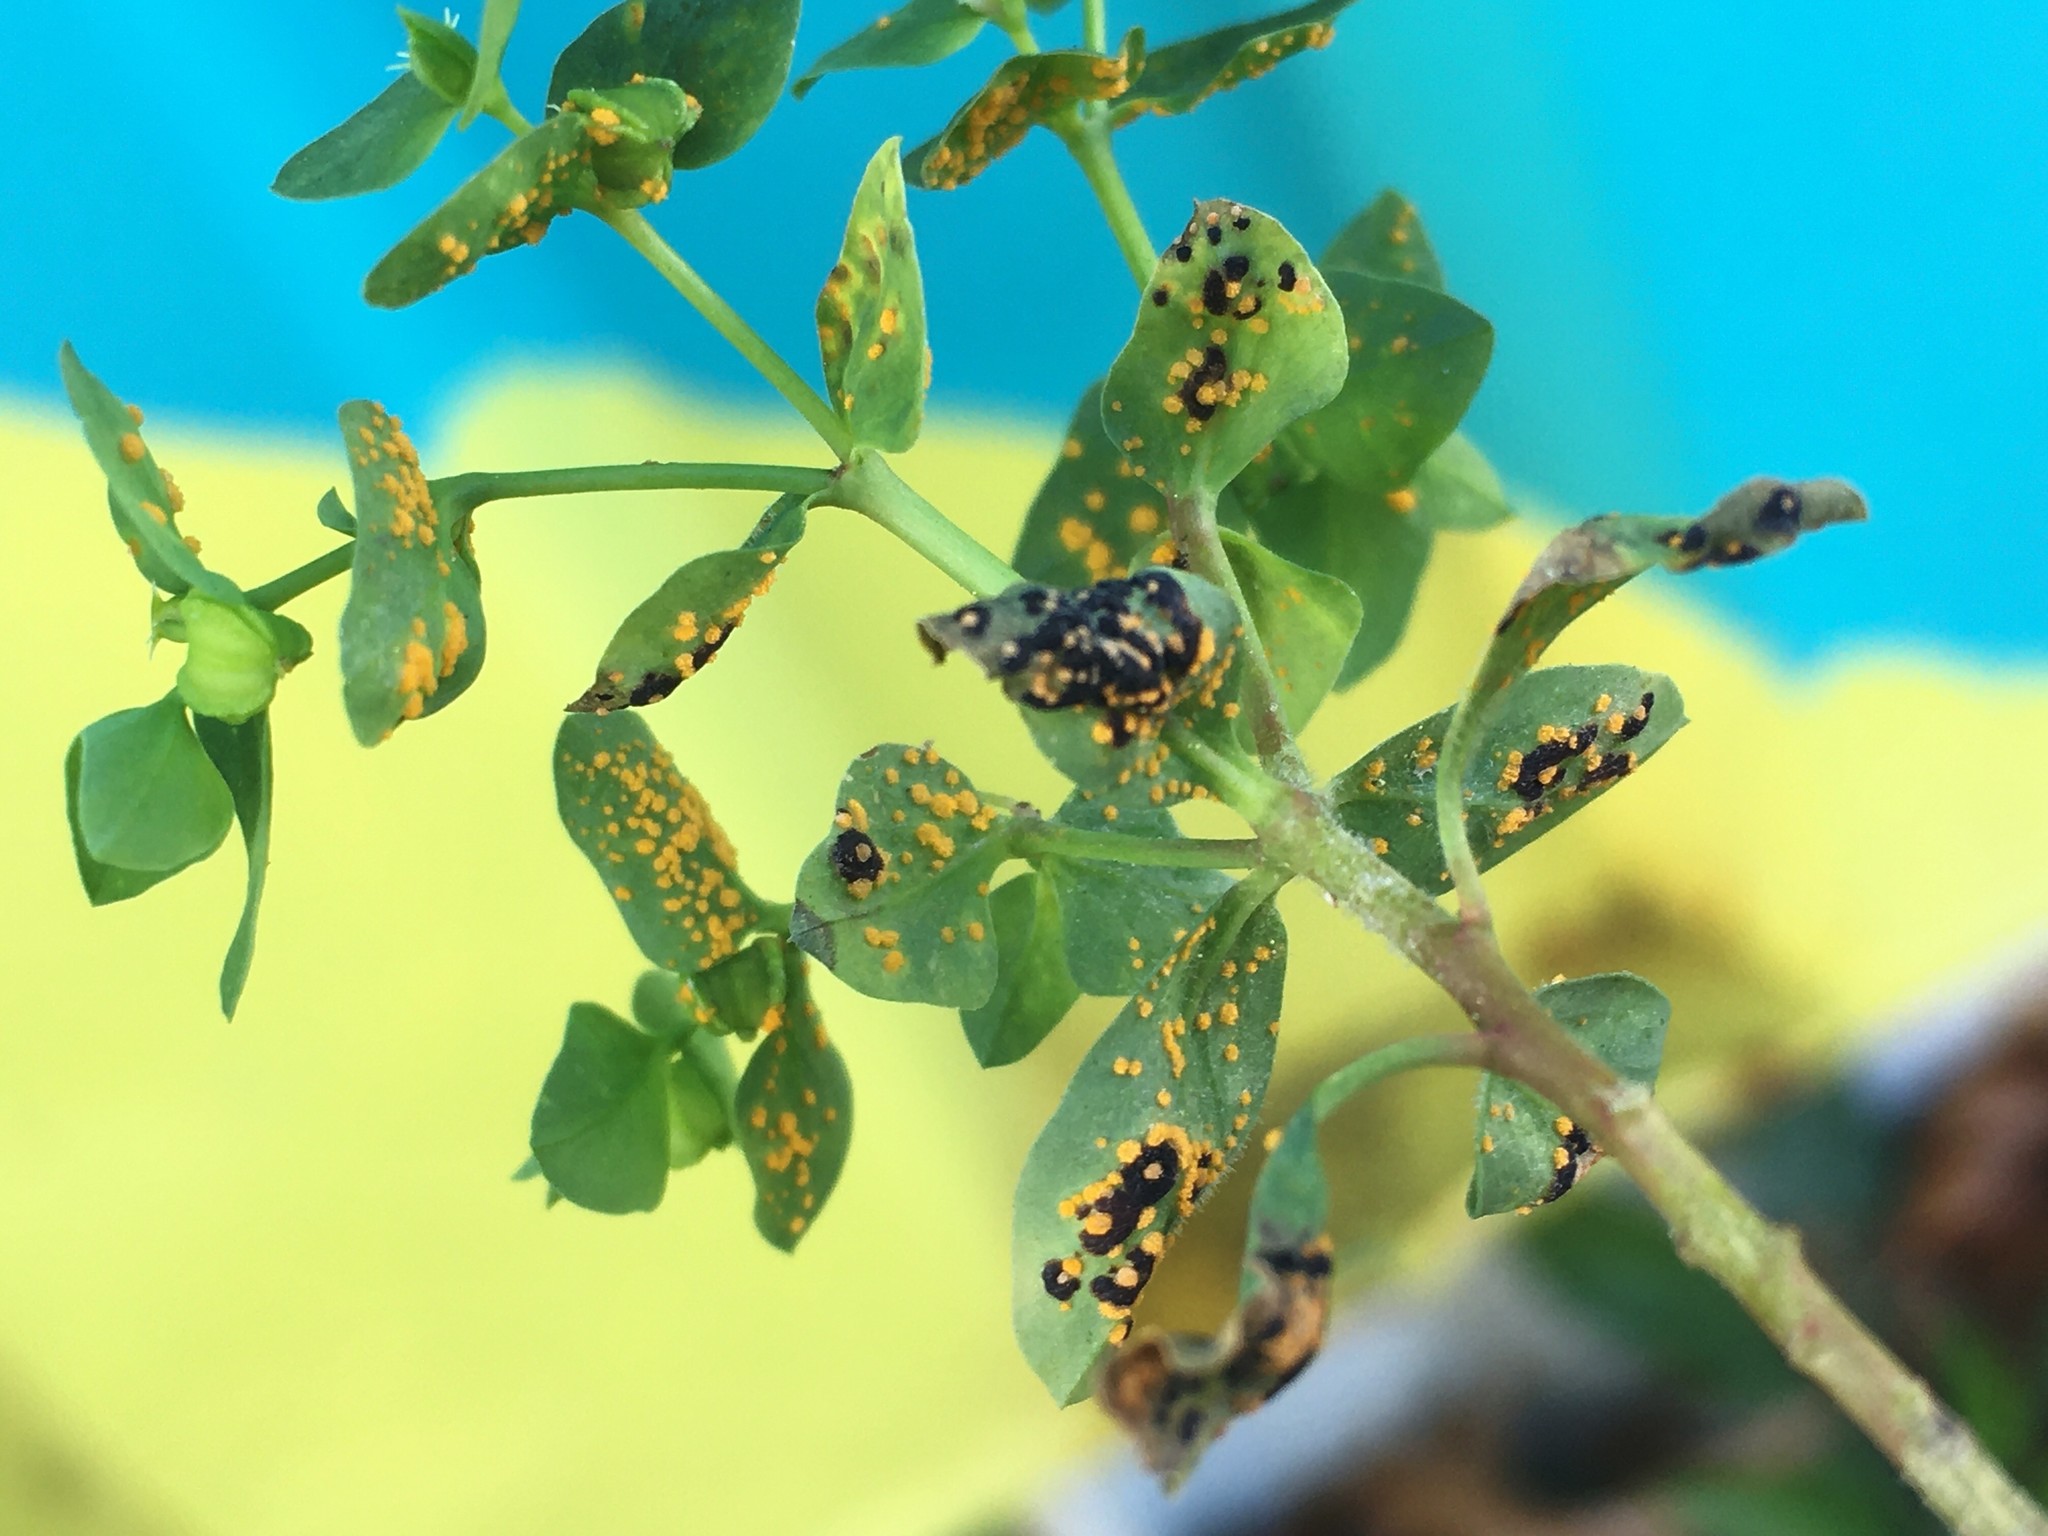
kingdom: Fungi
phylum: Basidiomycota
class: Pucciniomycetes
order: Pucciniales
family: Melampsoraceae
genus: Melampsora
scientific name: Melampsora euphorbiae
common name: Spurge rust
